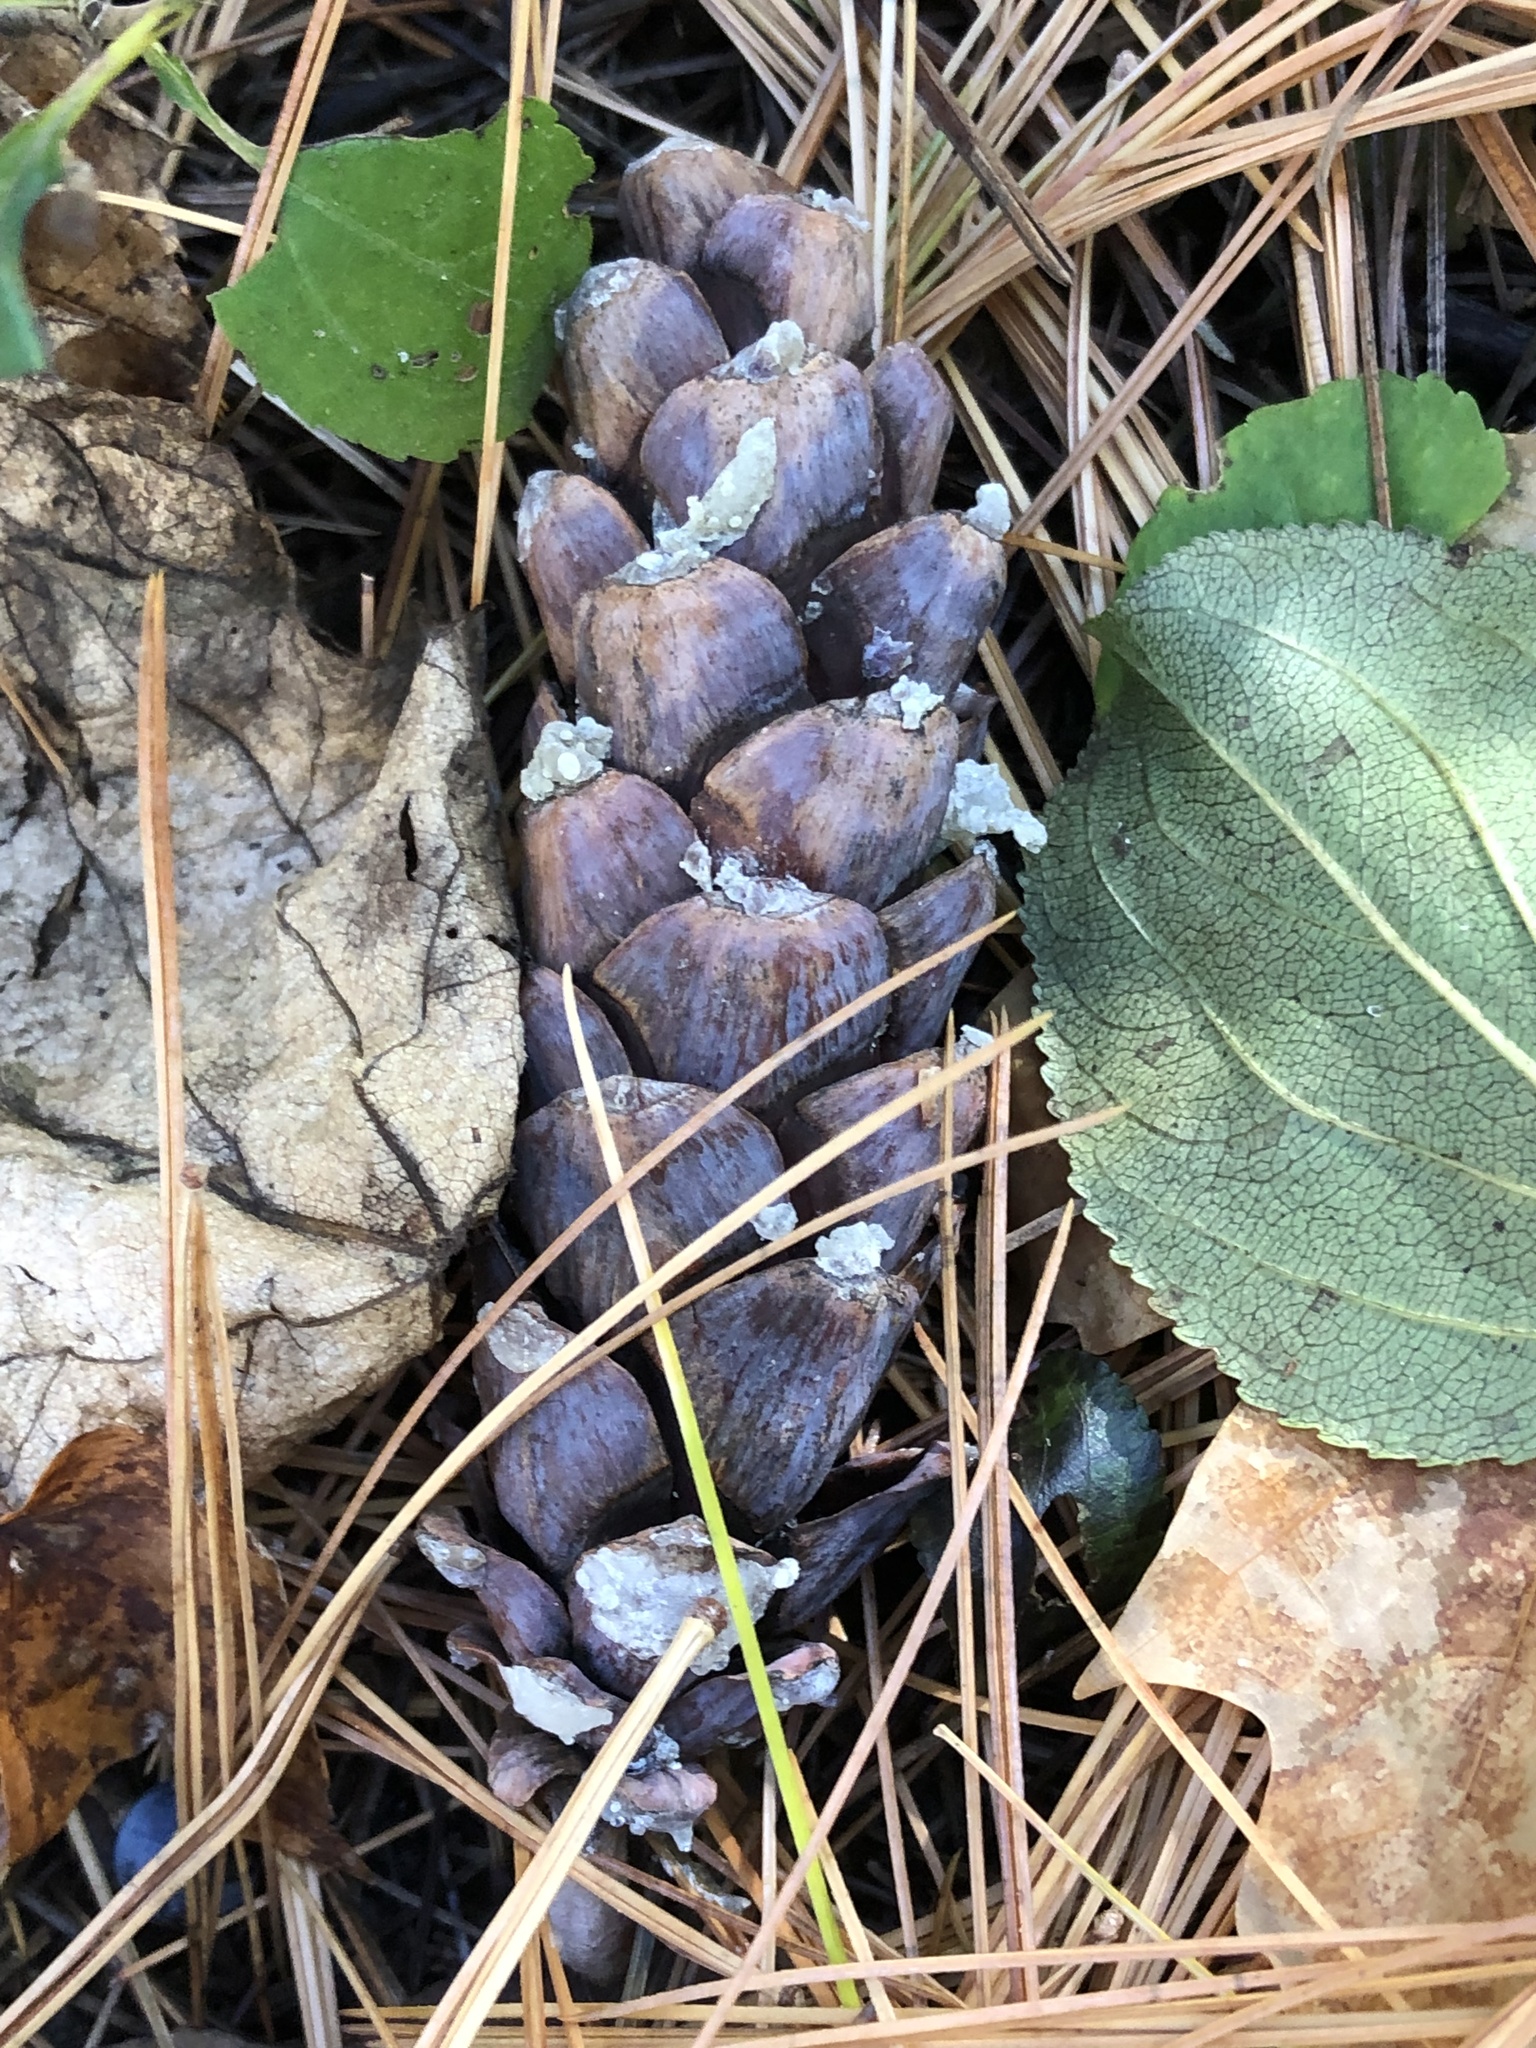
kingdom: Plantae
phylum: Tracheophyta
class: Pinopsida
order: Pinales
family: Pinaceae
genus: Pinus
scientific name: Pinus strobus
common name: Weymouth pine
